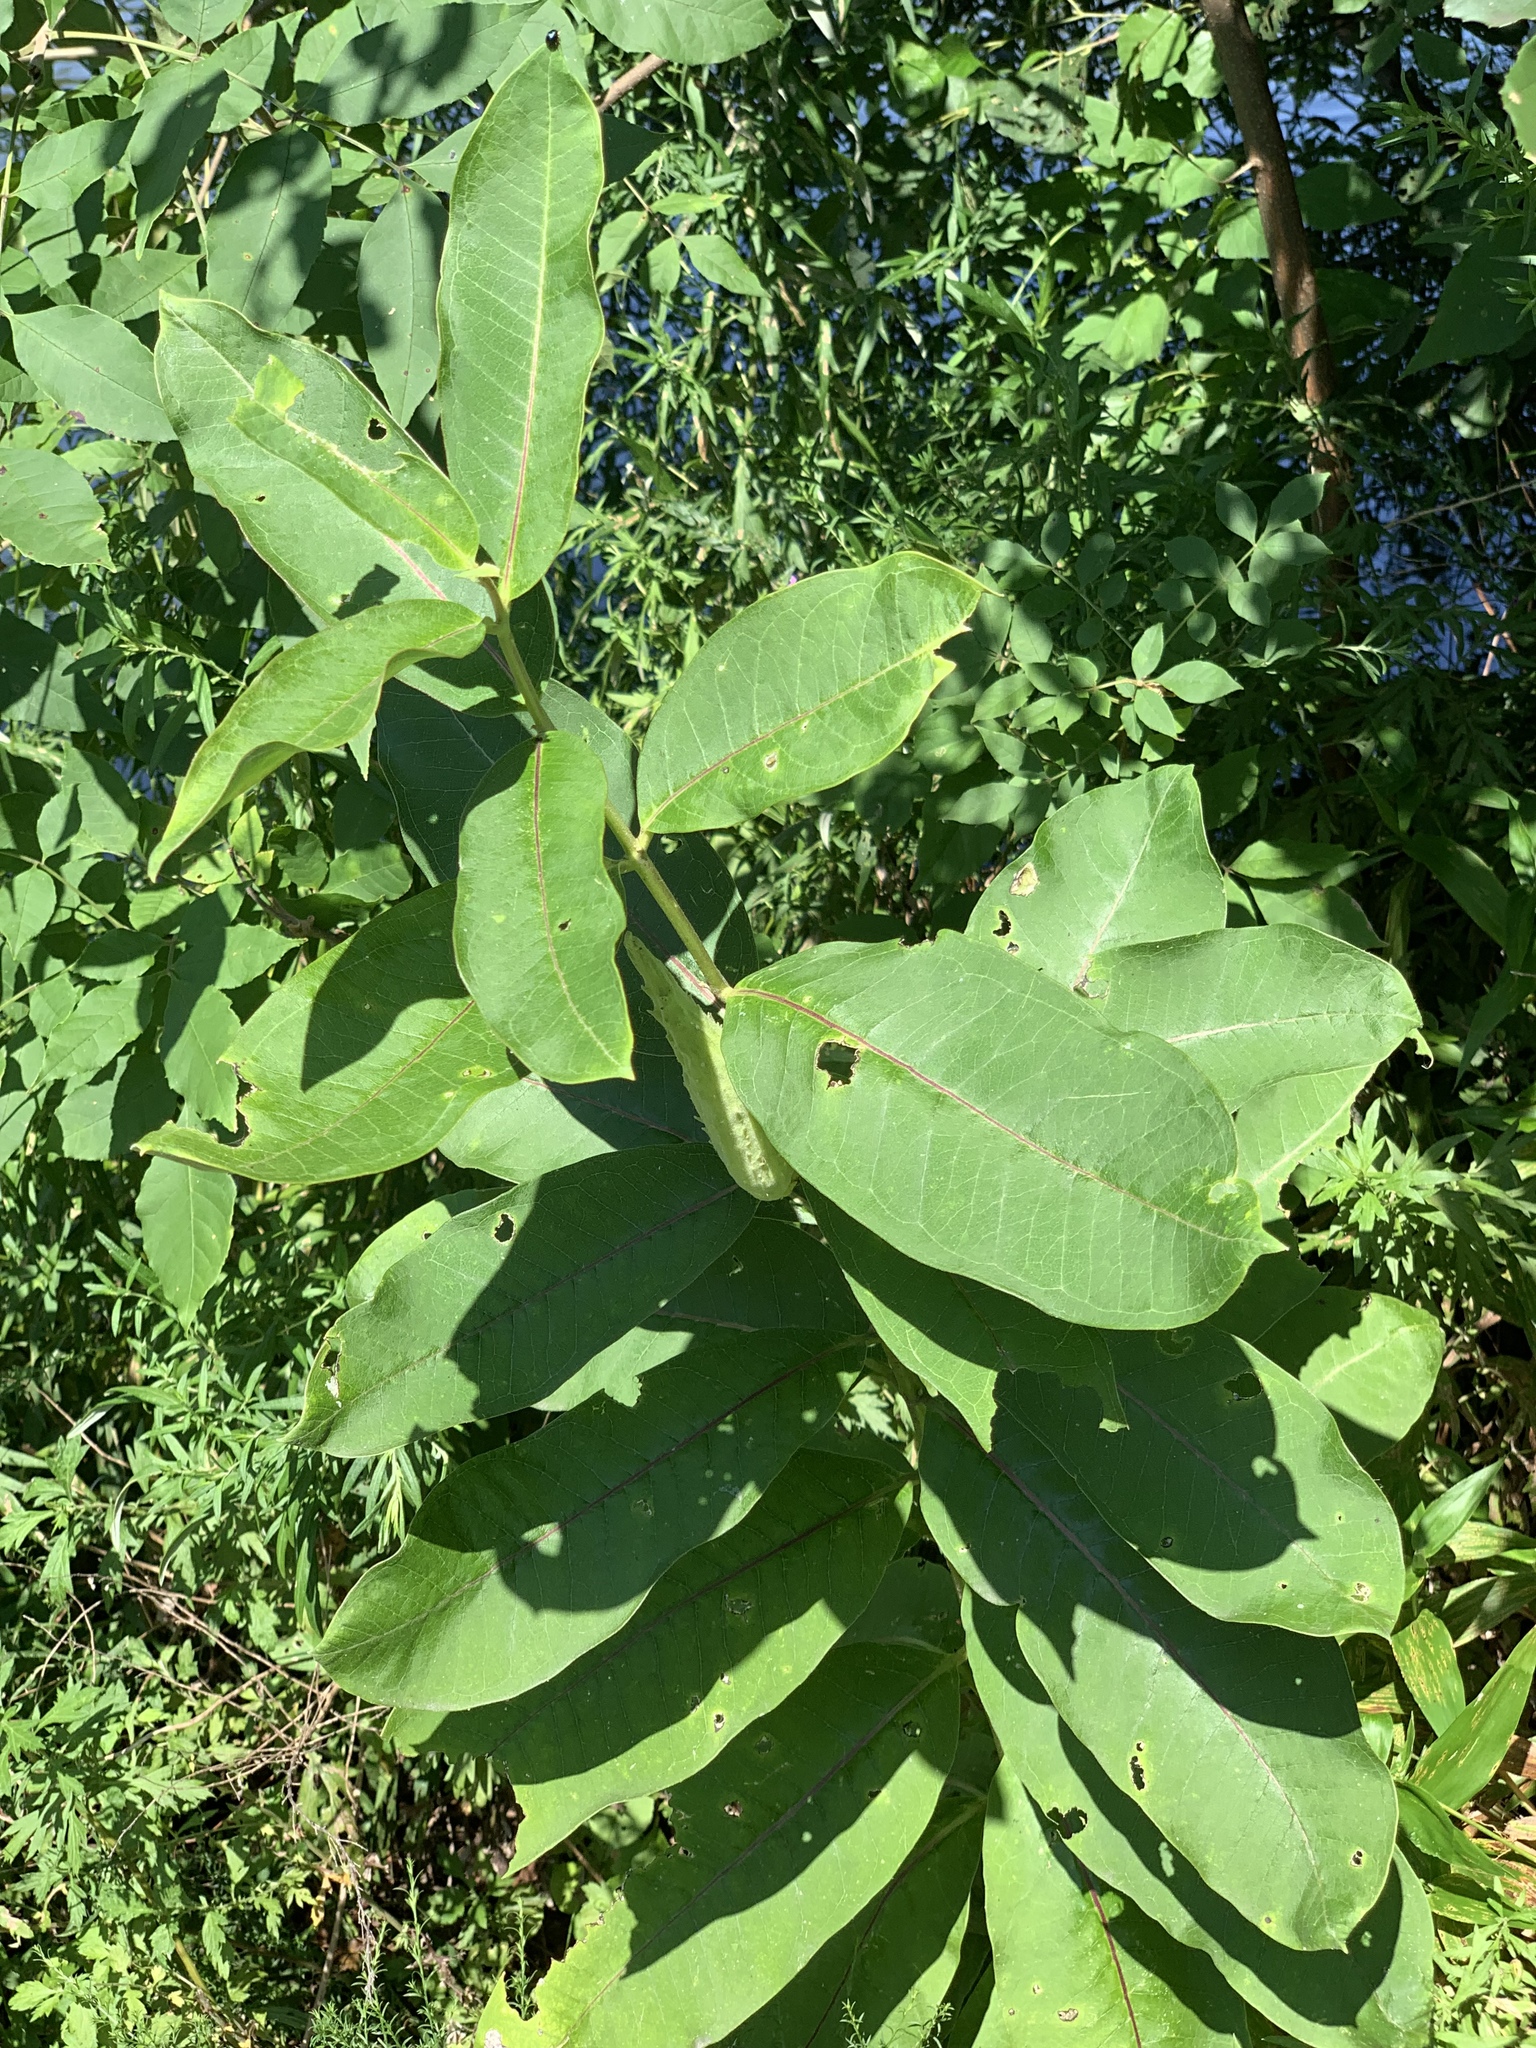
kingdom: Plantae
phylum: Tracheophyta
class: Magnoliopsida
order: Gentianales
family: Apocynaceae
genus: Asclepias
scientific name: Asclepias syriaca
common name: Common milkweed
